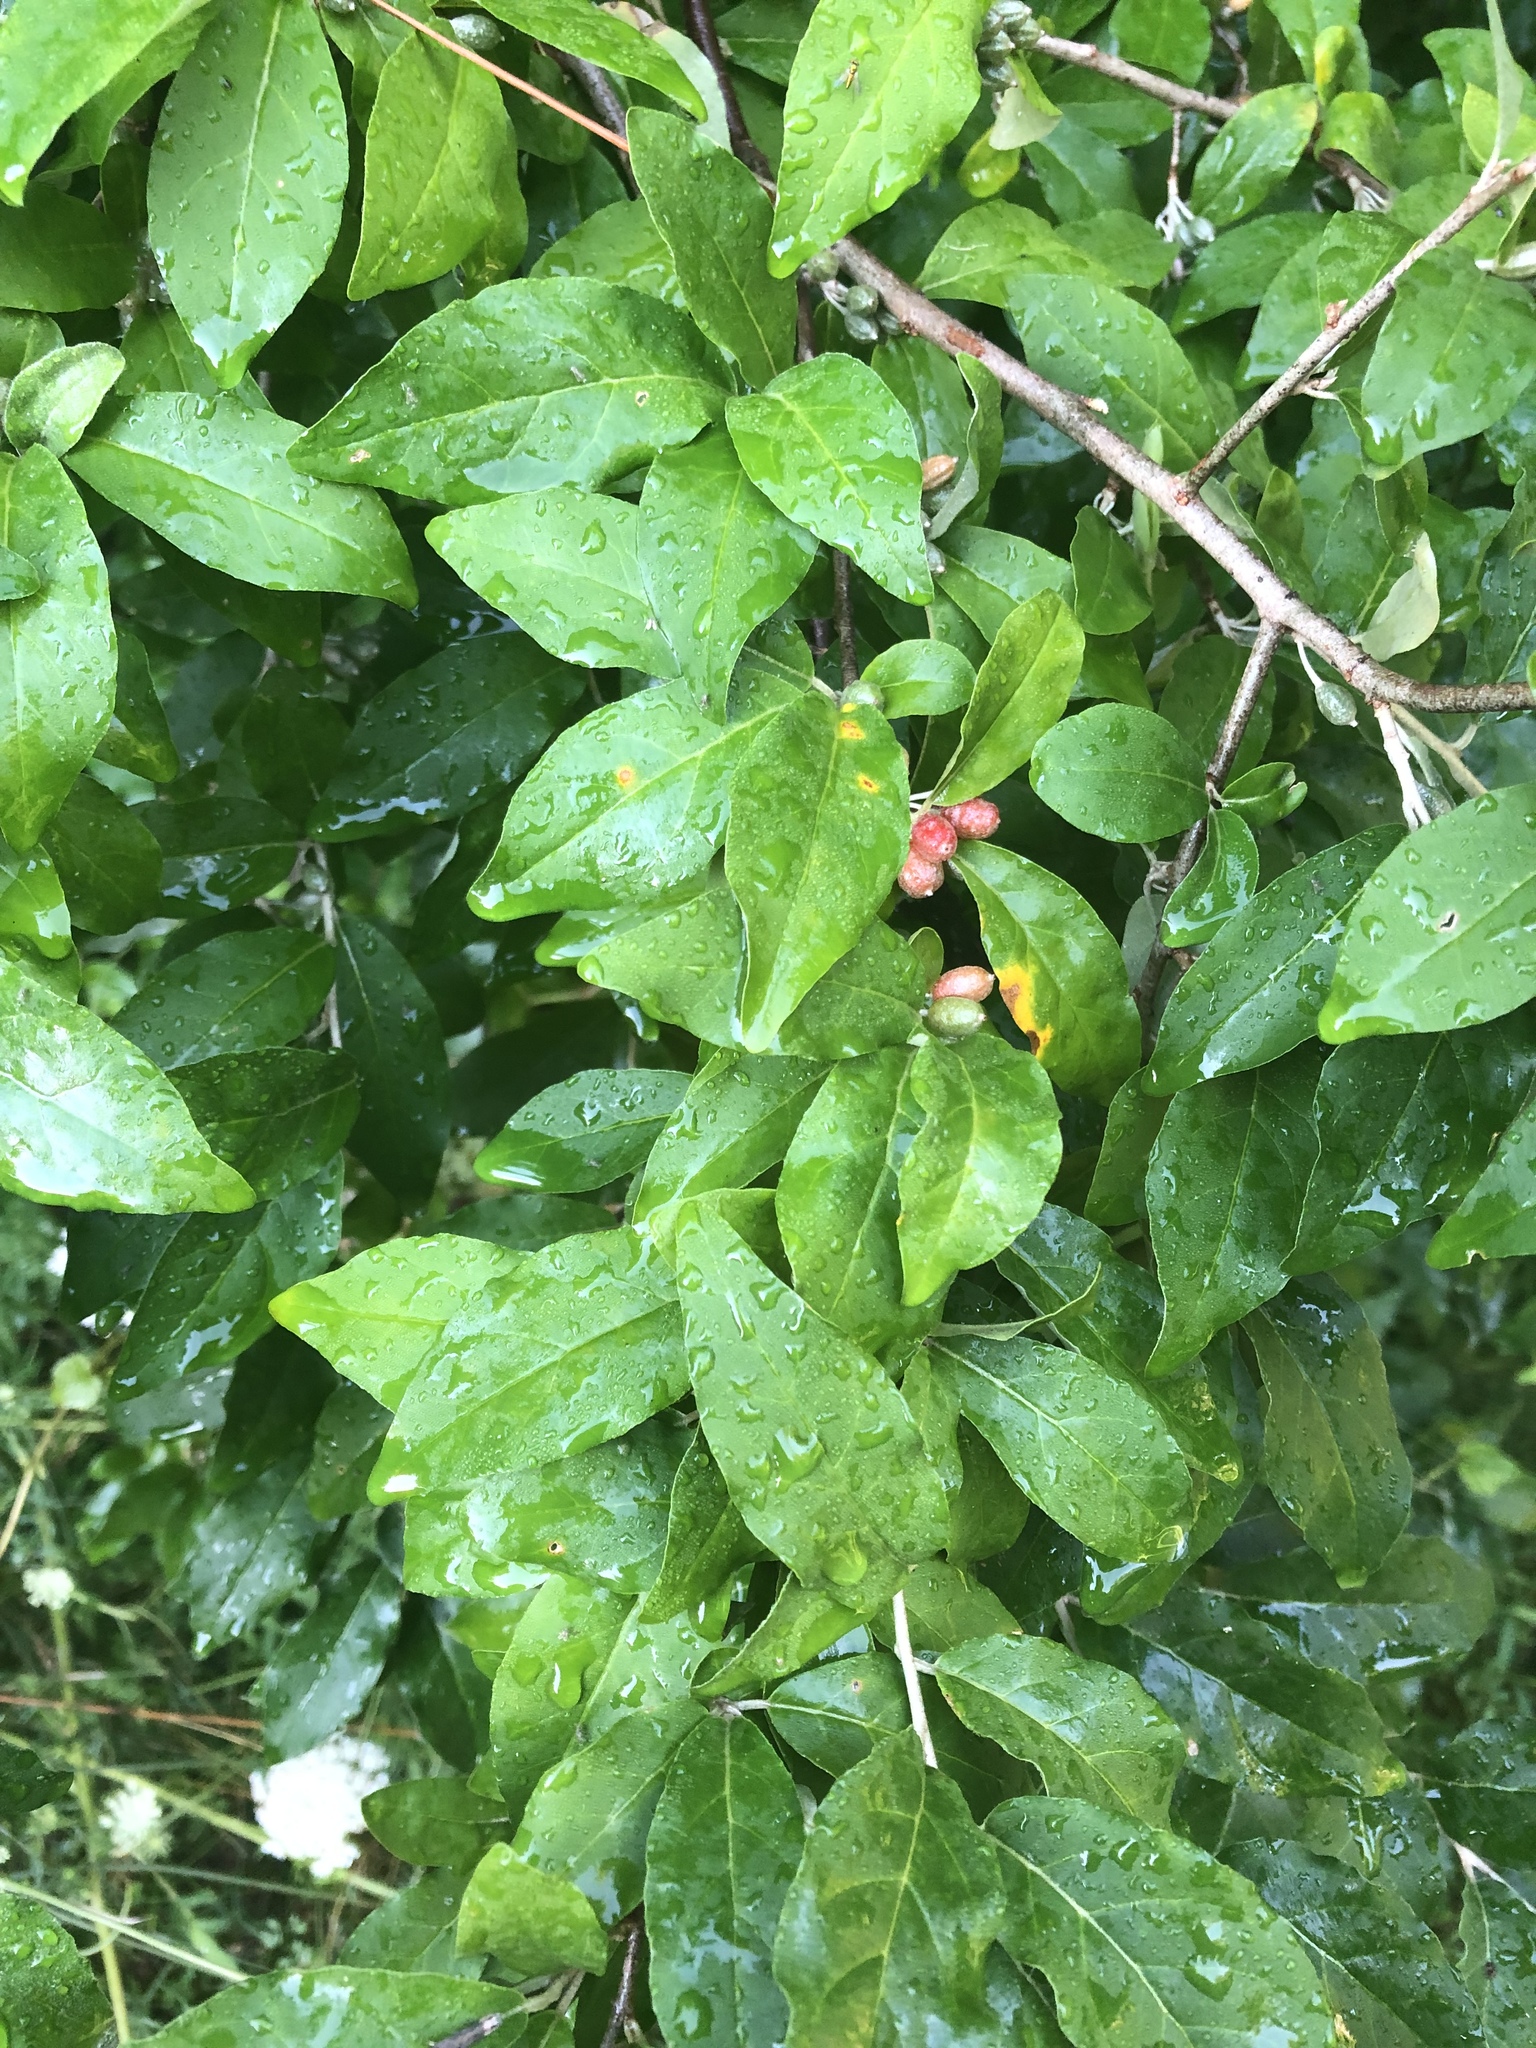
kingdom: Plantae
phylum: Tracheophyta
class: Magnoliopsida
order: Rosales
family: Elaeagnaceae
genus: Elaeagnus
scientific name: Elaeagnus umbellata
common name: Autumn olive
